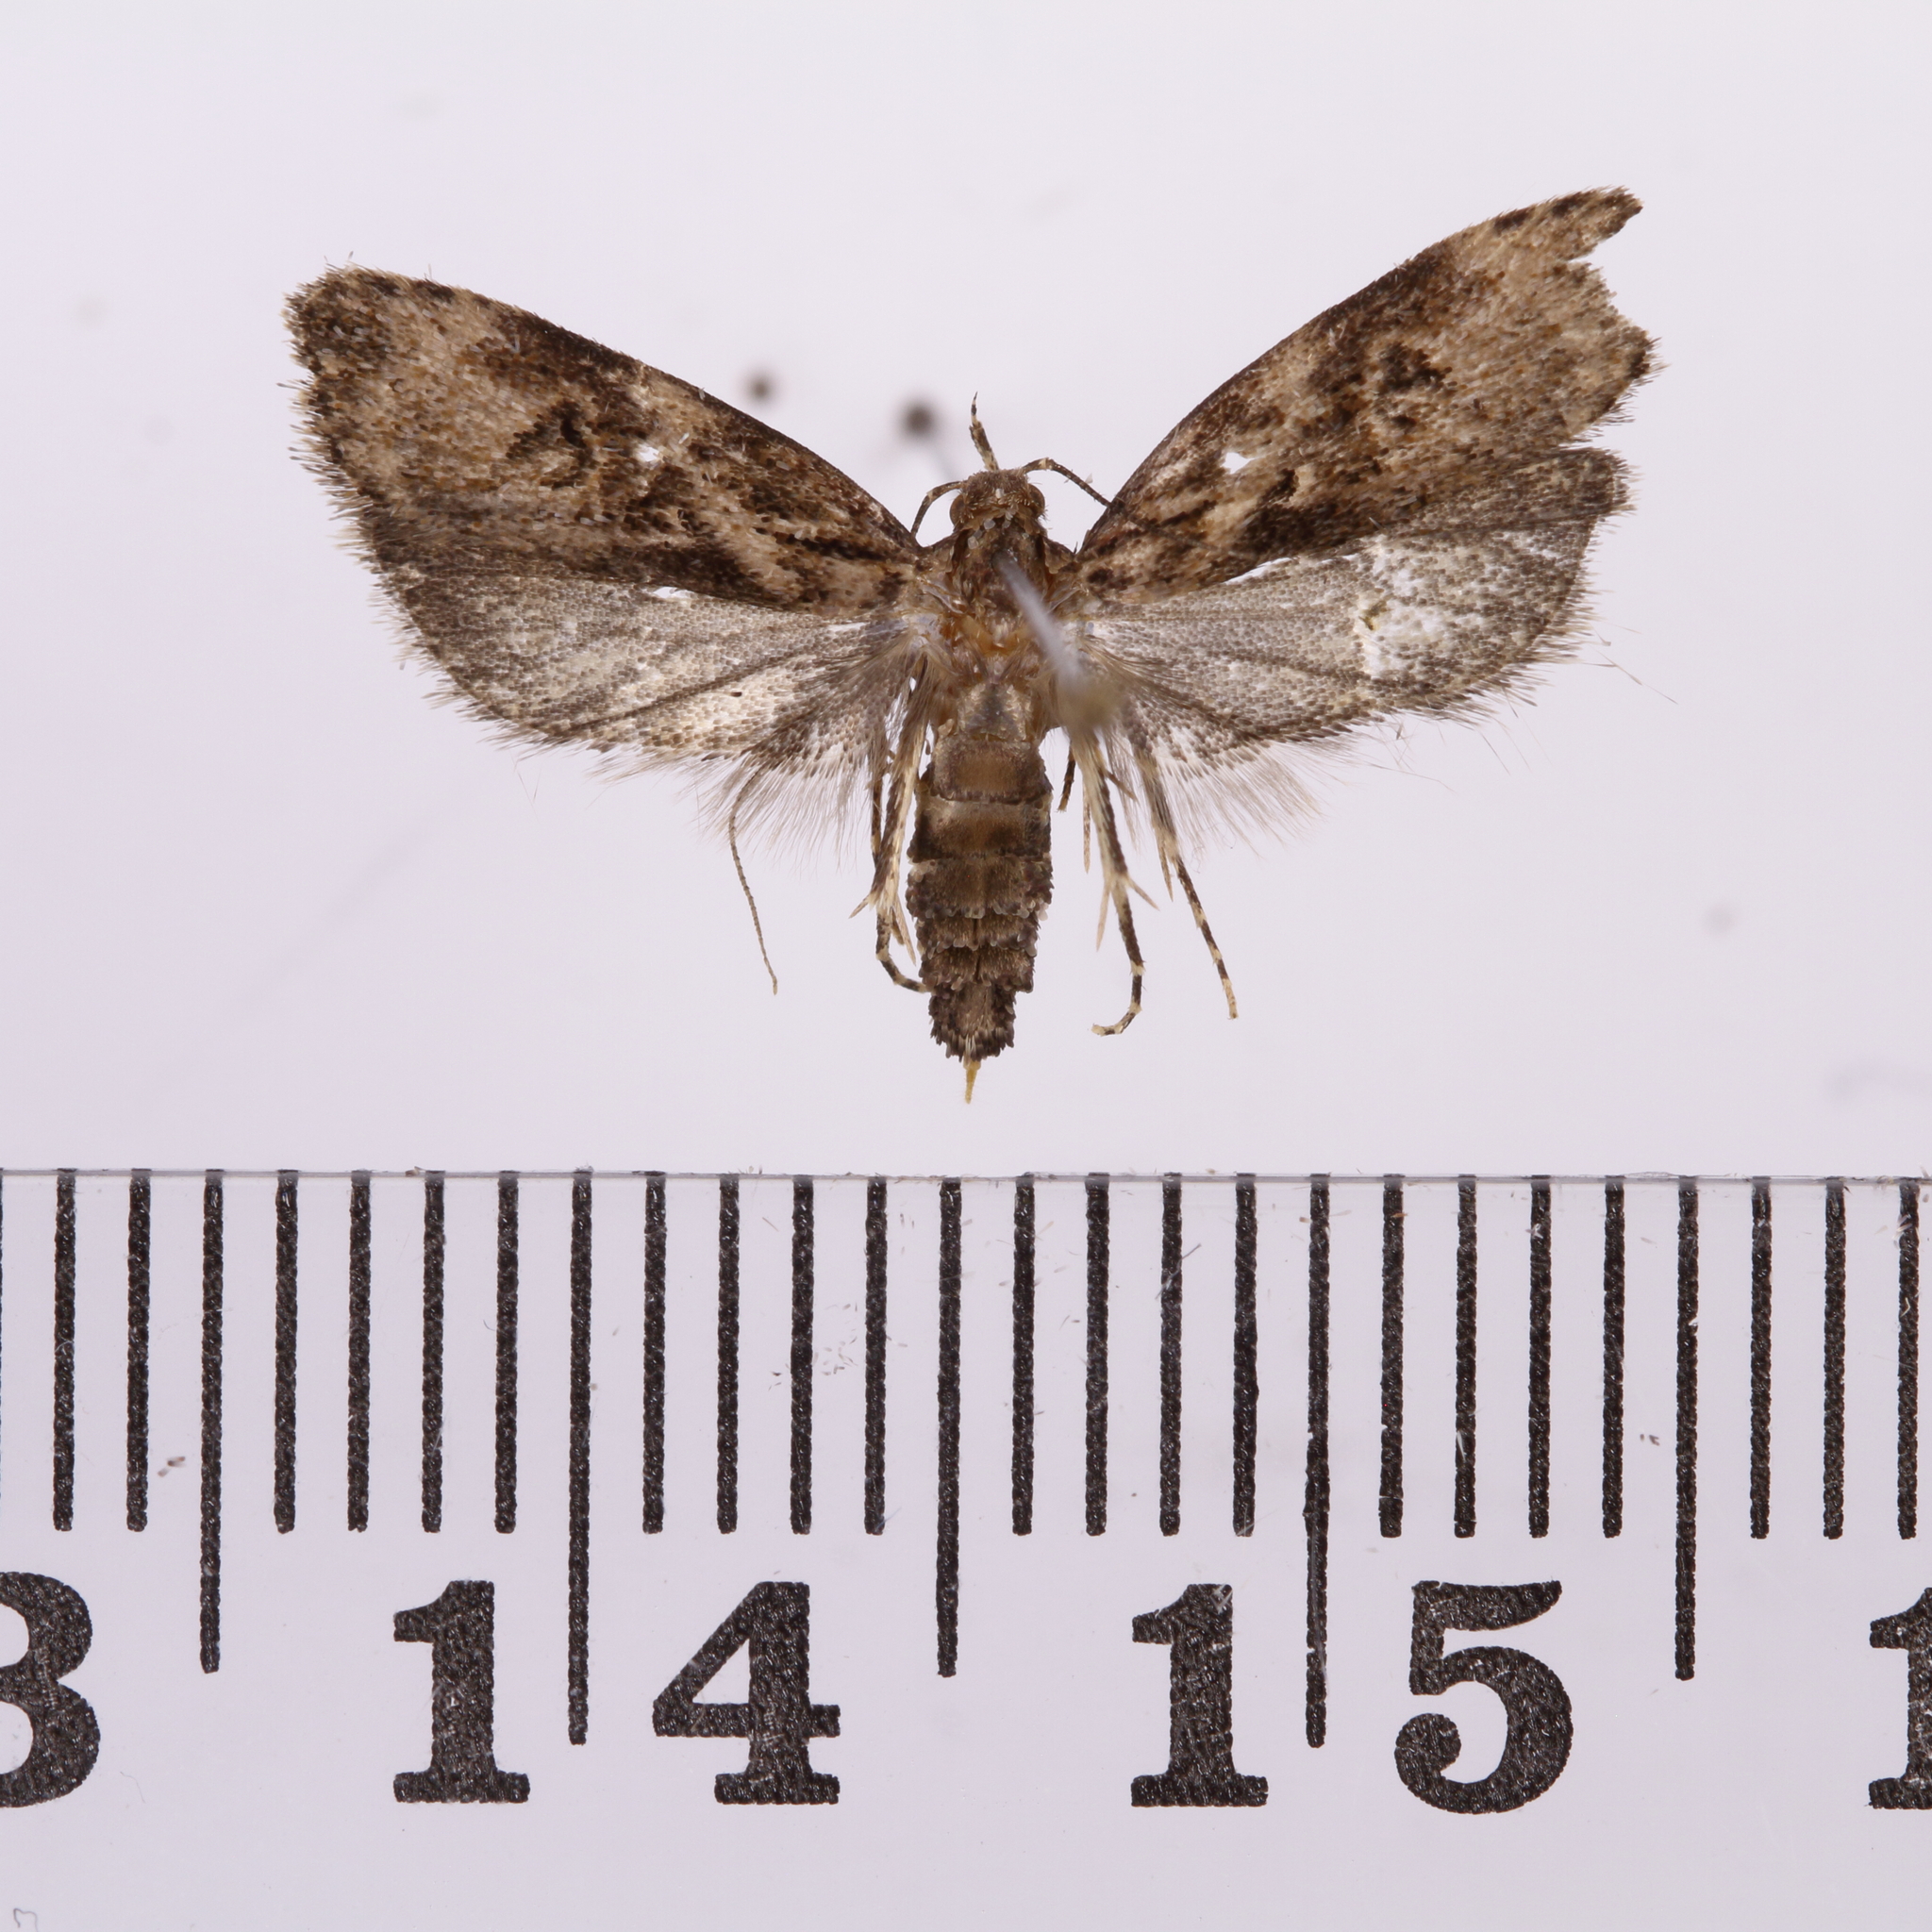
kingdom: Animalia
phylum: Arthropoda
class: Insecta
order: Lepidoptera
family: Oecophoridae
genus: Izatha
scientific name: Izatha austera
